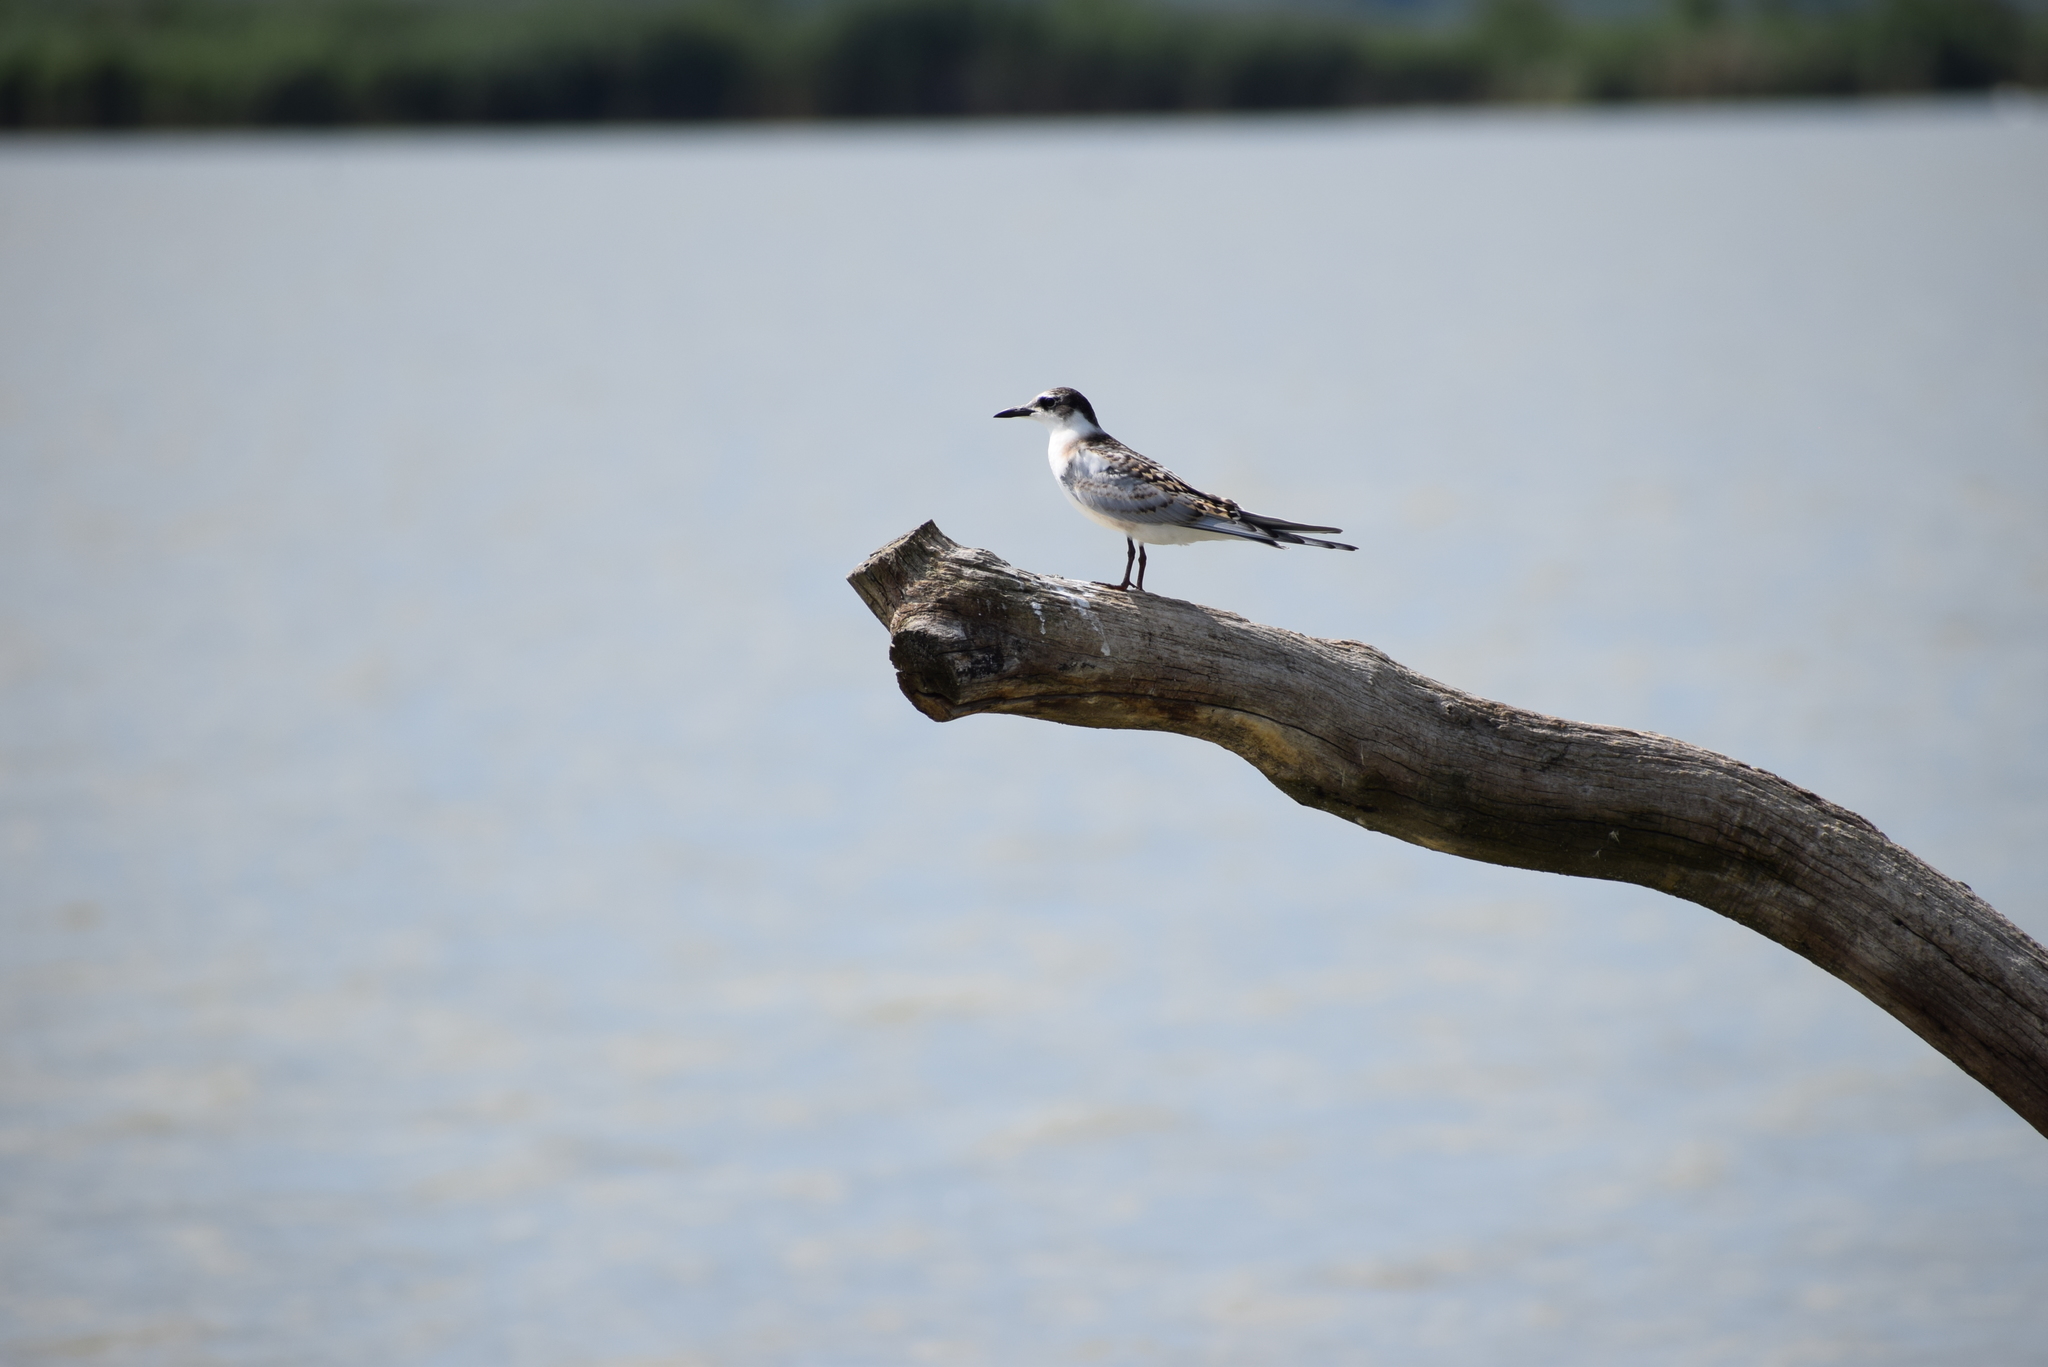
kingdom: Animalia
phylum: Chordata
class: Aves
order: Charadriiformes
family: Laridae
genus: Chlidonias
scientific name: Chlidonias hybrida
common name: Whiskered tern
